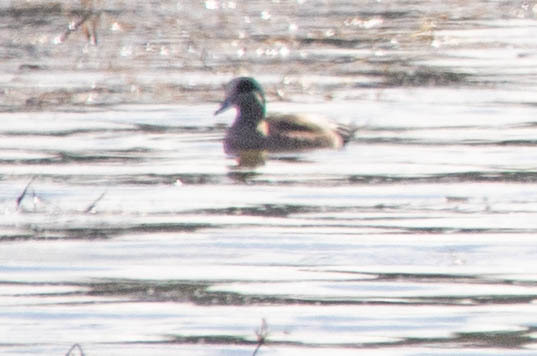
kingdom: Animalia
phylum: Chordata
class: Aves
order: Anseriformes
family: Anatidae
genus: Mareca
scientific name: Mareca americana
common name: American wigeon
